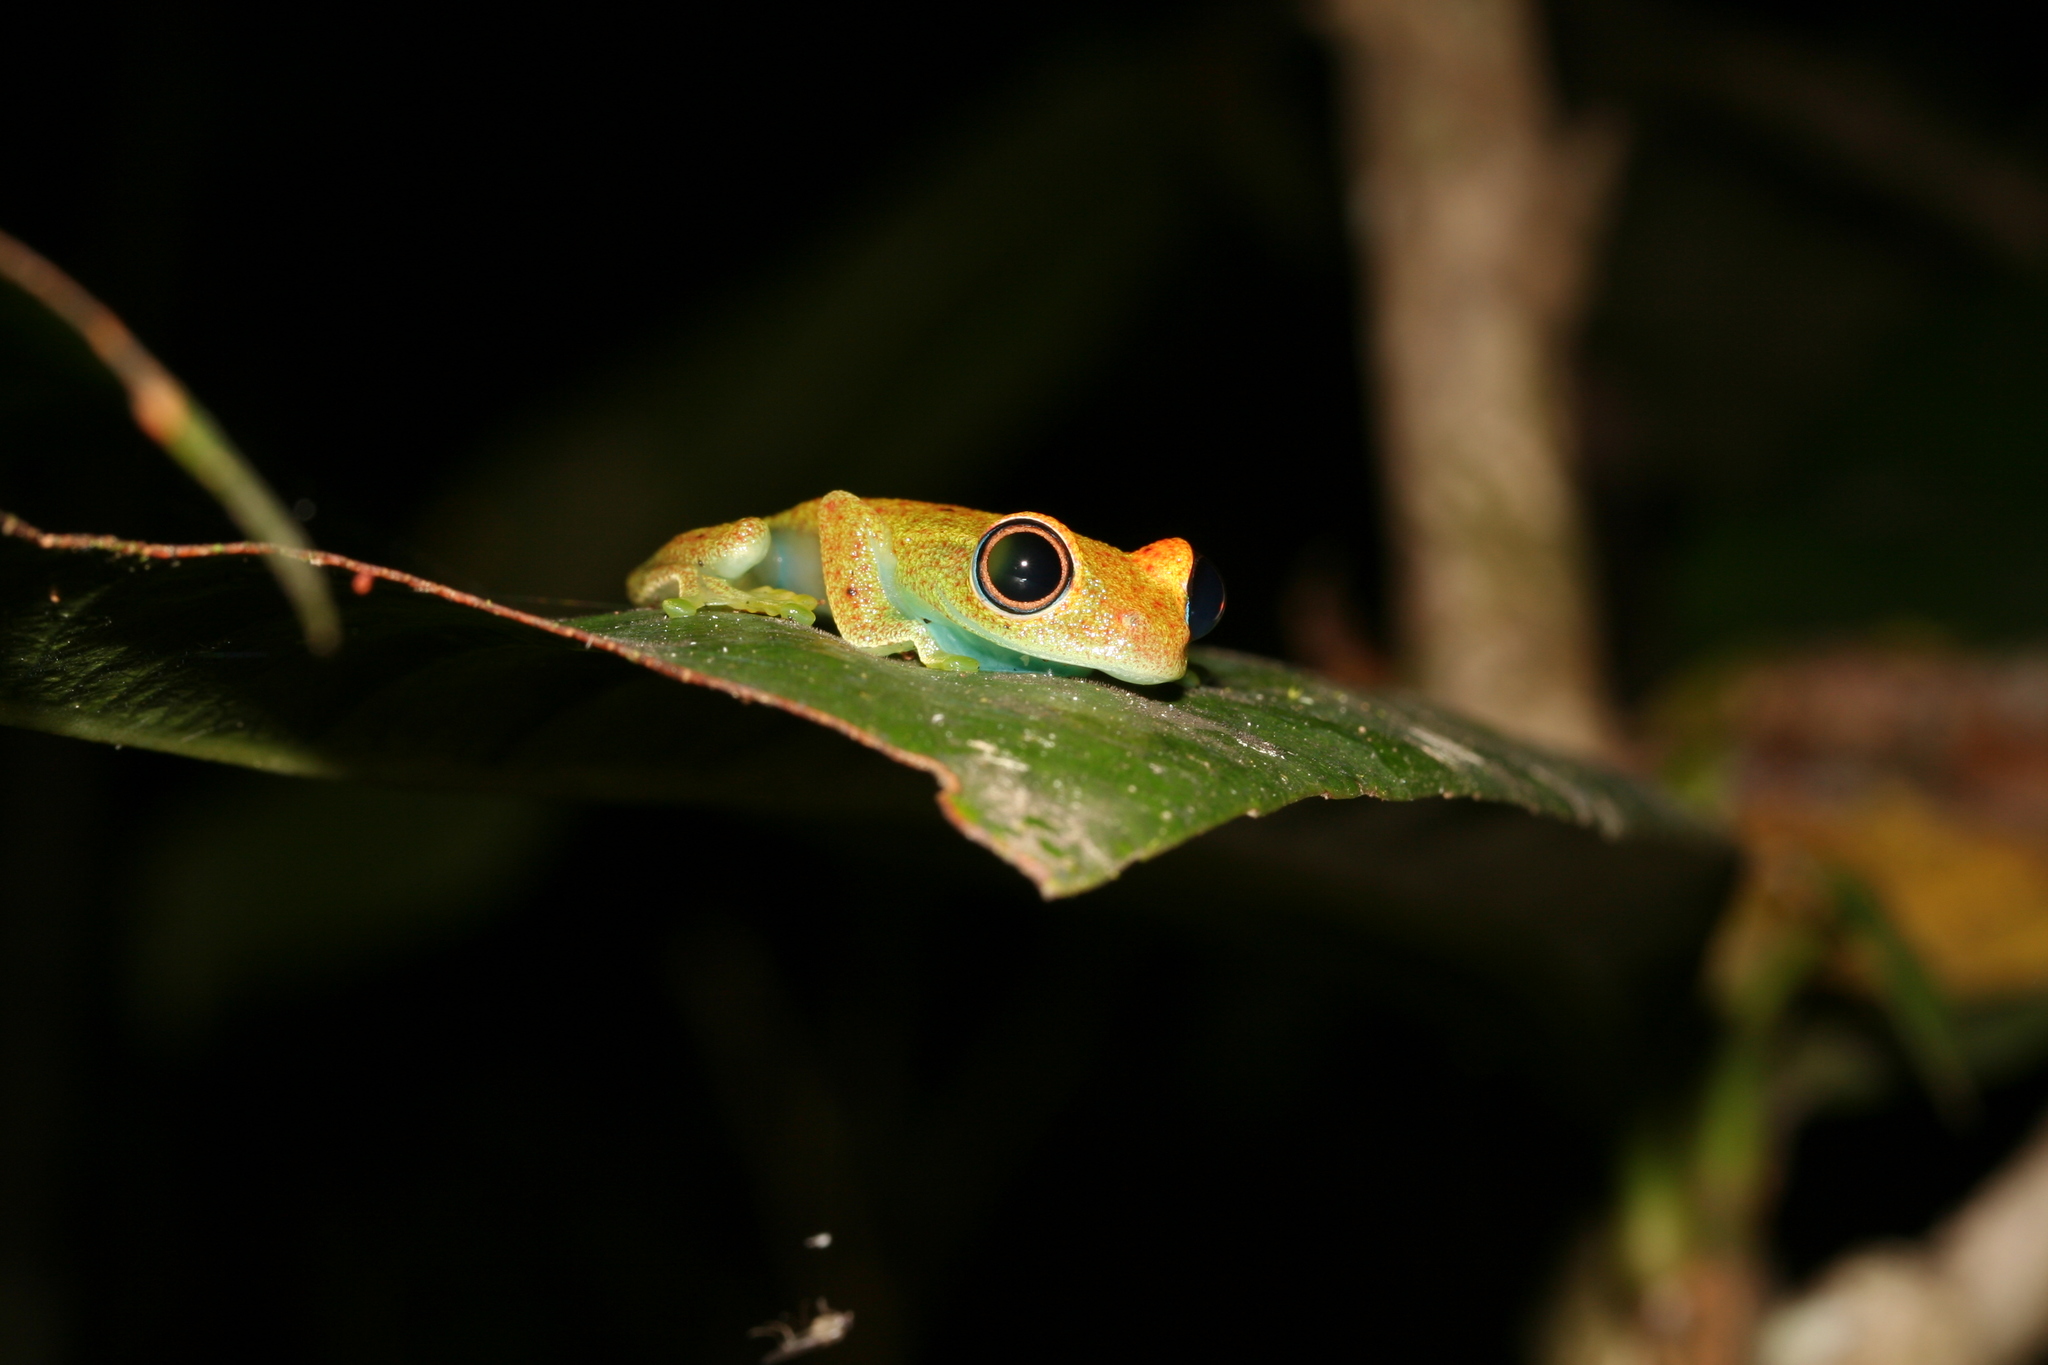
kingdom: Animalia
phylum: Chordata
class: Amphibia
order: Anura
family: Mantellidae
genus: Boophis
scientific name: Boophis viridis
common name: Green bright-eyed frog
